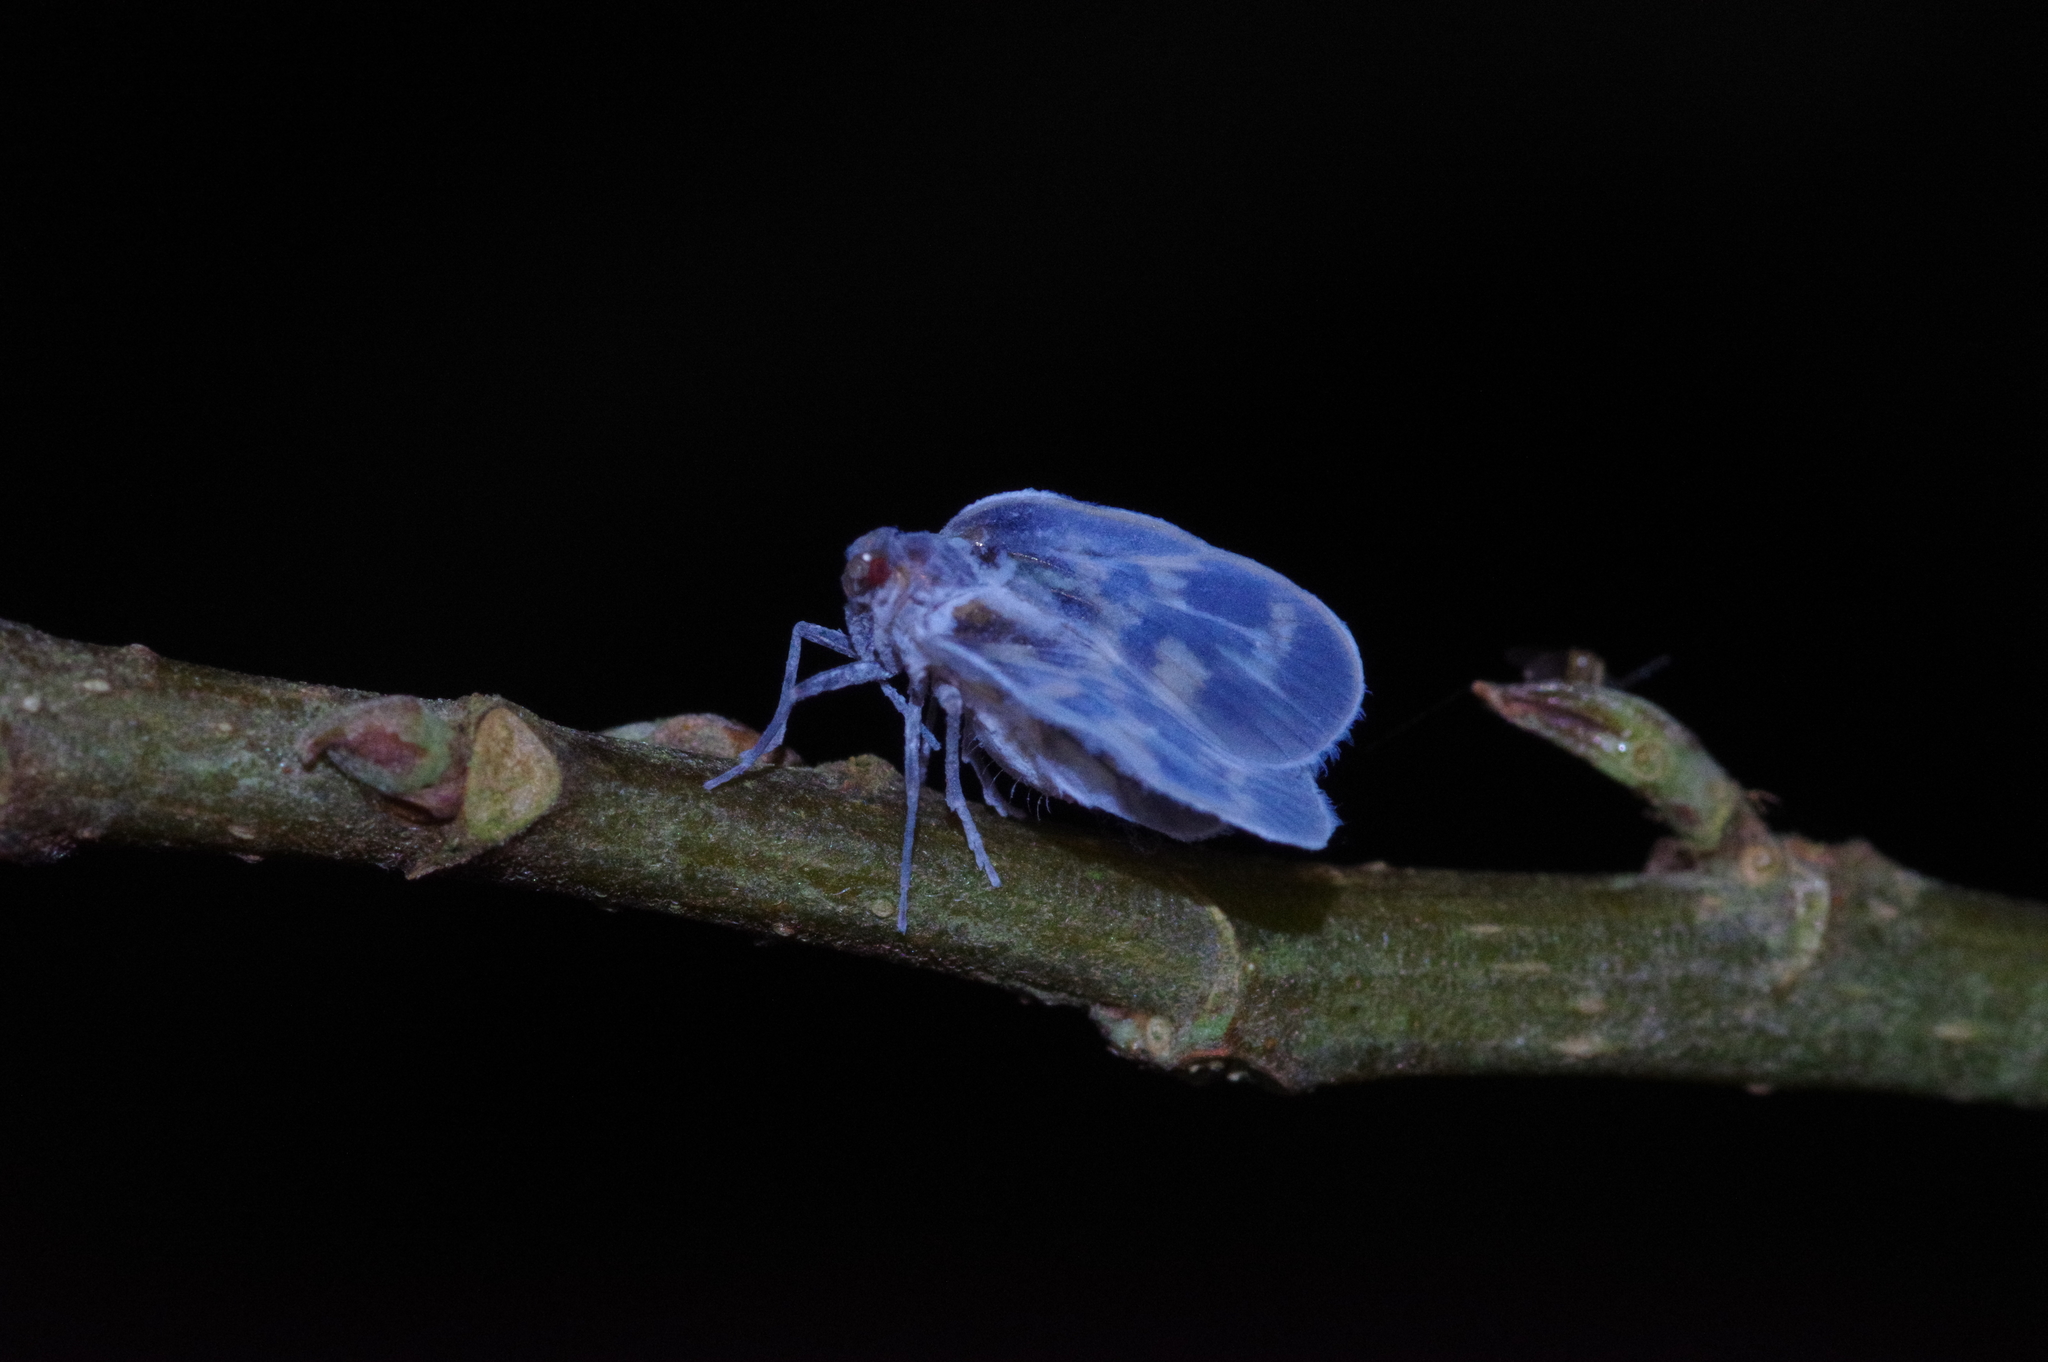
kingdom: Animalia
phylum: Arthropoda
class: Insecta
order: Hemiptera
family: Cixiidae
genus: Borysthenes
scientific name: Borysthenes maculatus
